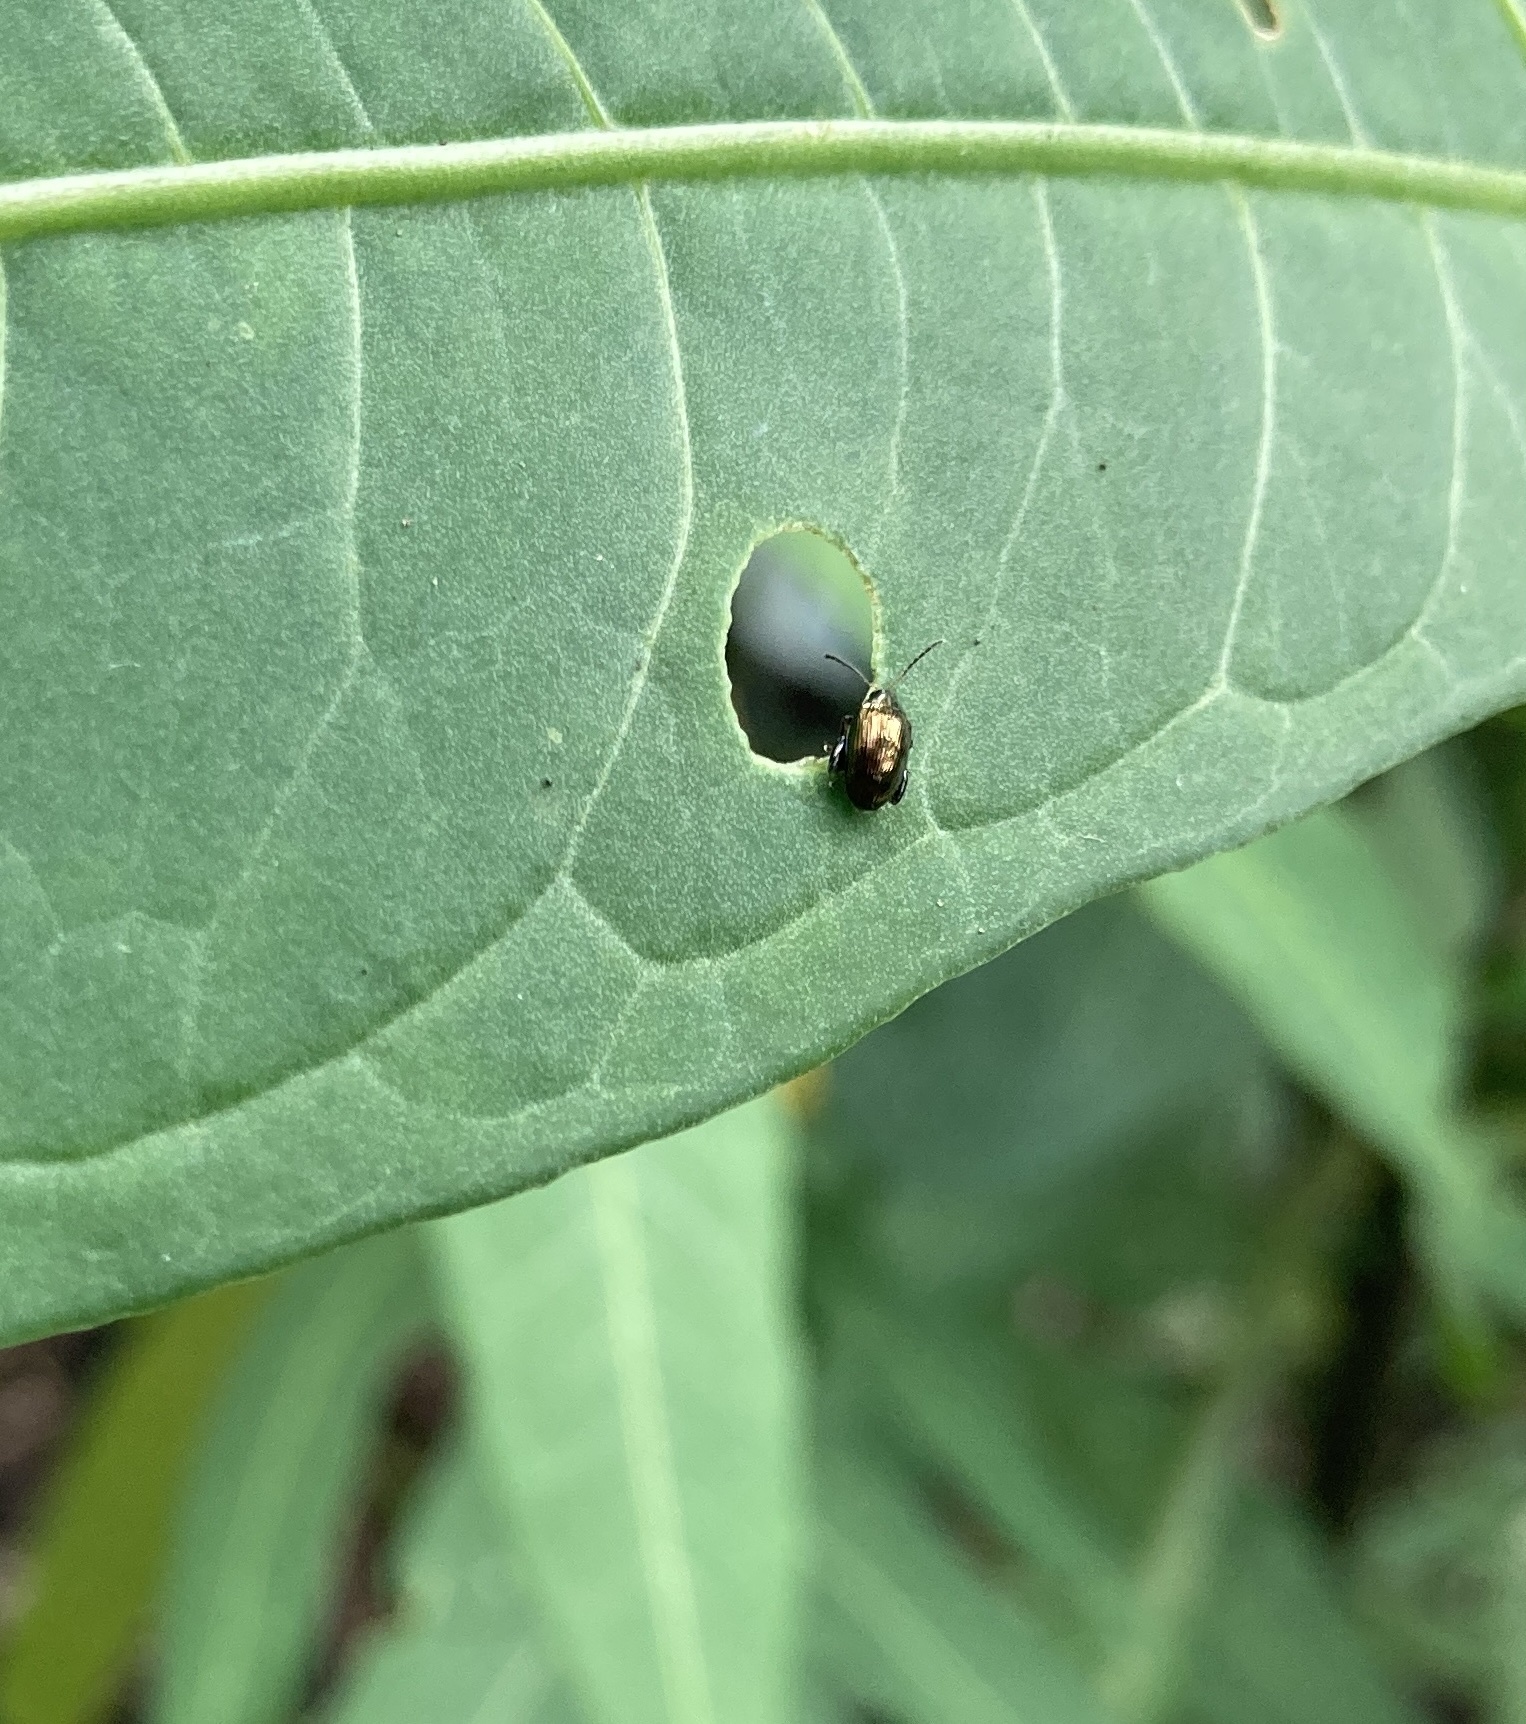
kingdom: Animalia
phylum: Arthropoda
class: Insecta
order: Coleoptera
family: Chrysomelidae
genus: Psylliodes
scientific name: Psylliodes brettinghami
